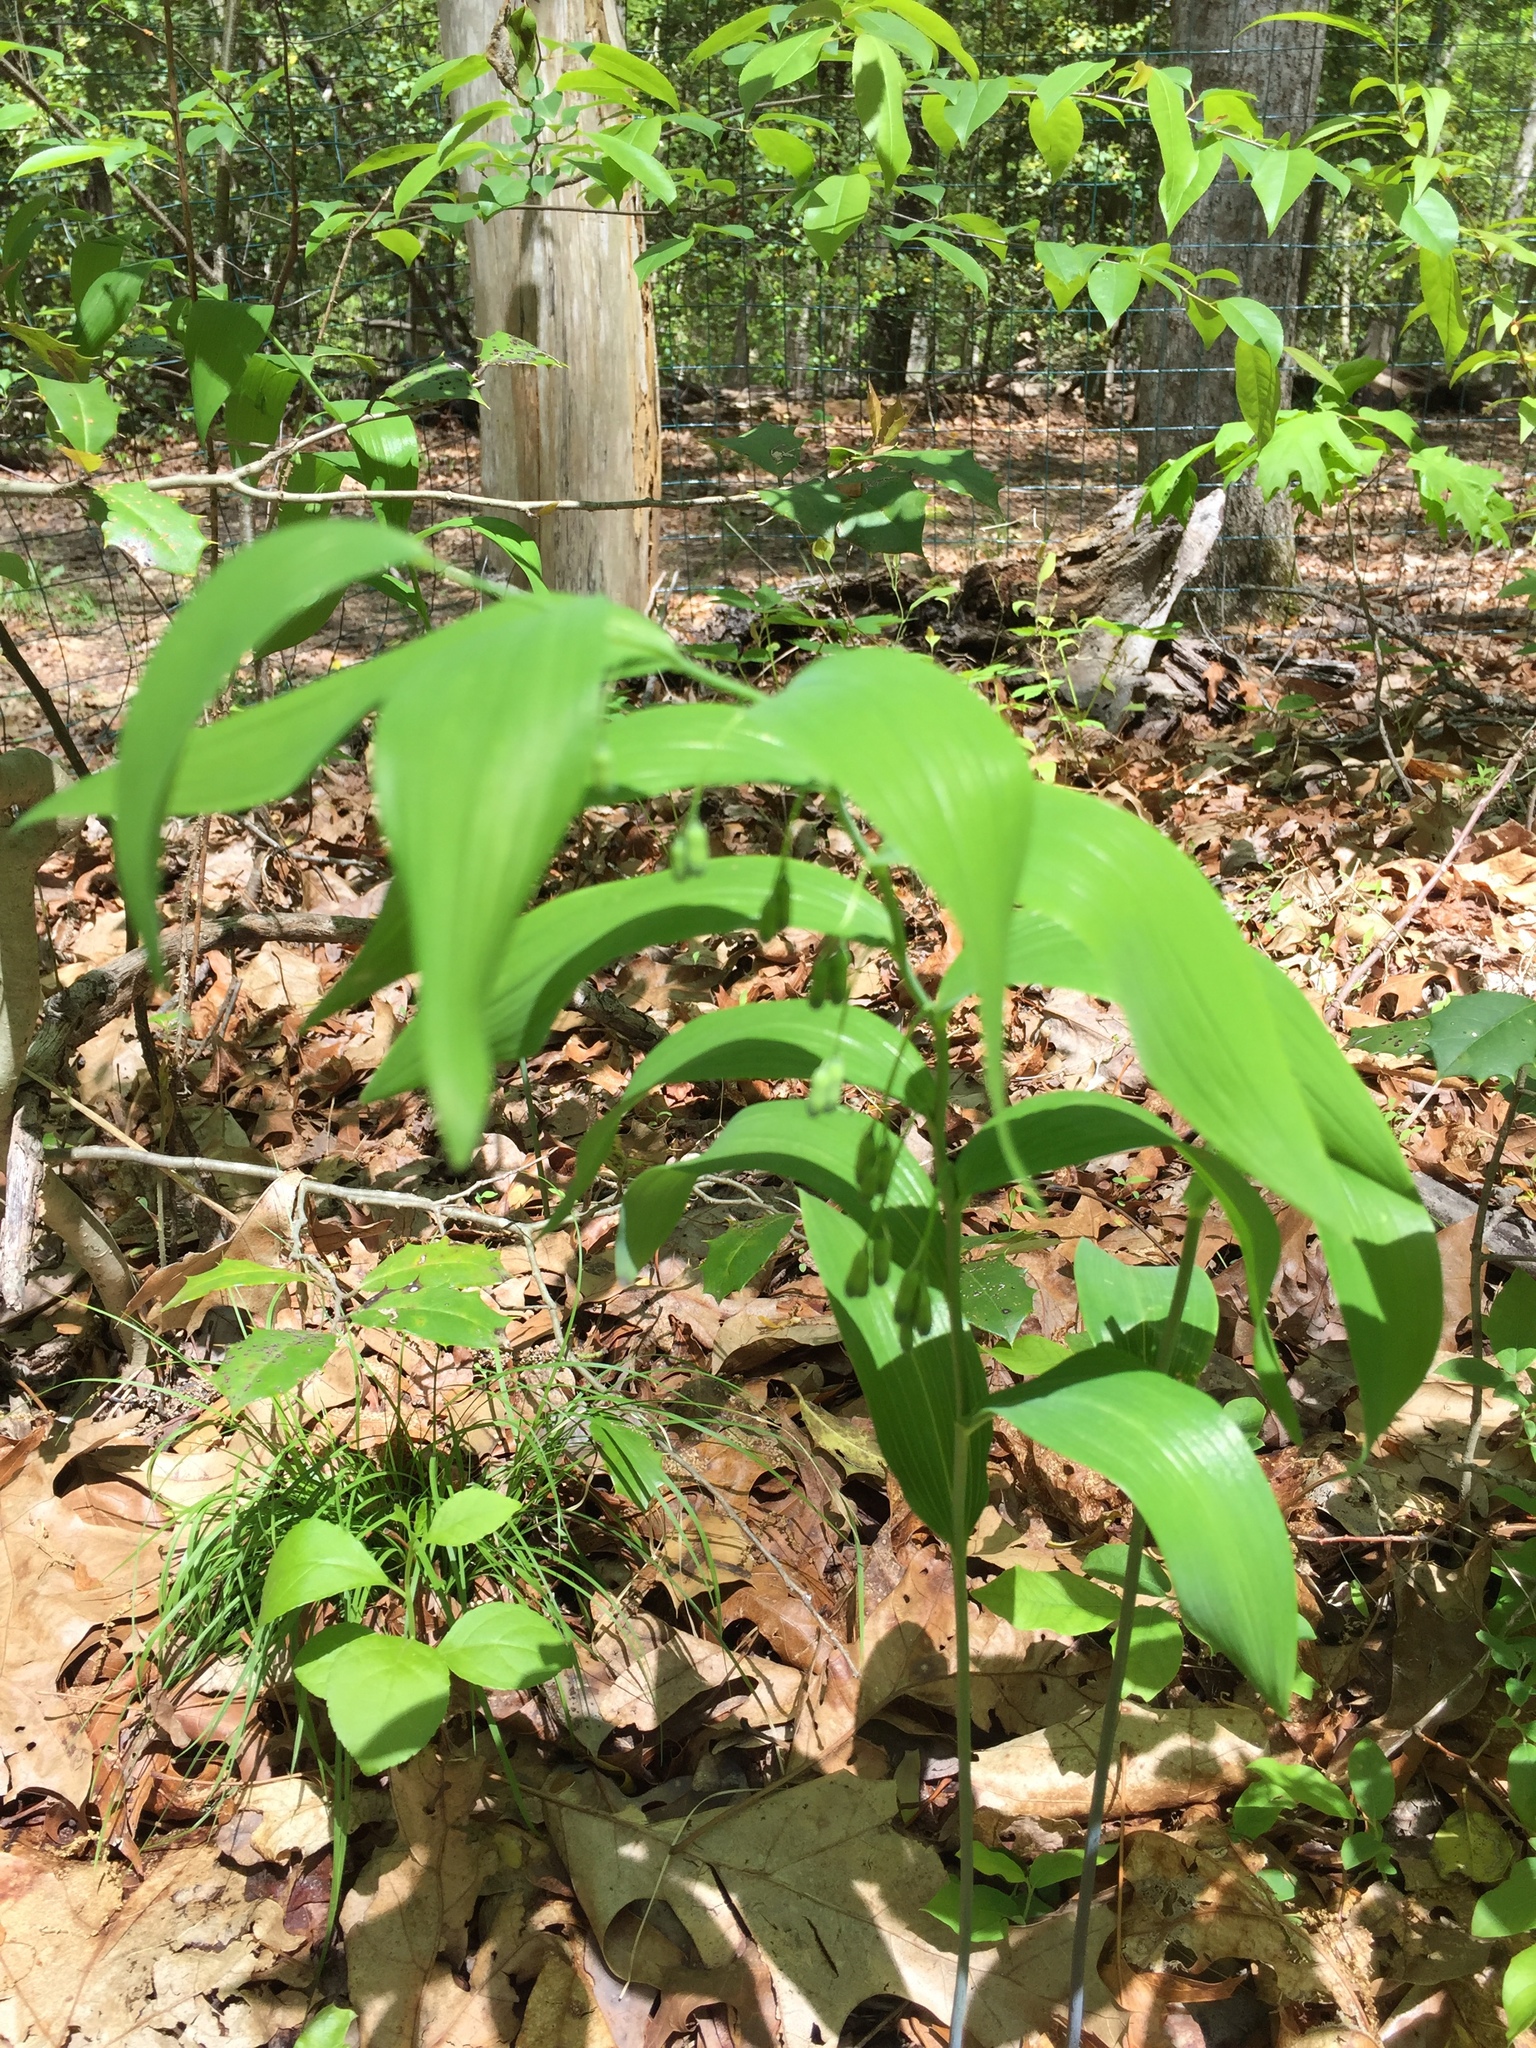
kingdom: Plantae
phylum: Tracheophyta
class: Liliopsida
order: Asparagales
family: Asparagaceae
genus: Polygonatum
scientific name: Polygonatum biflorum
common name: American solomon's-seal
